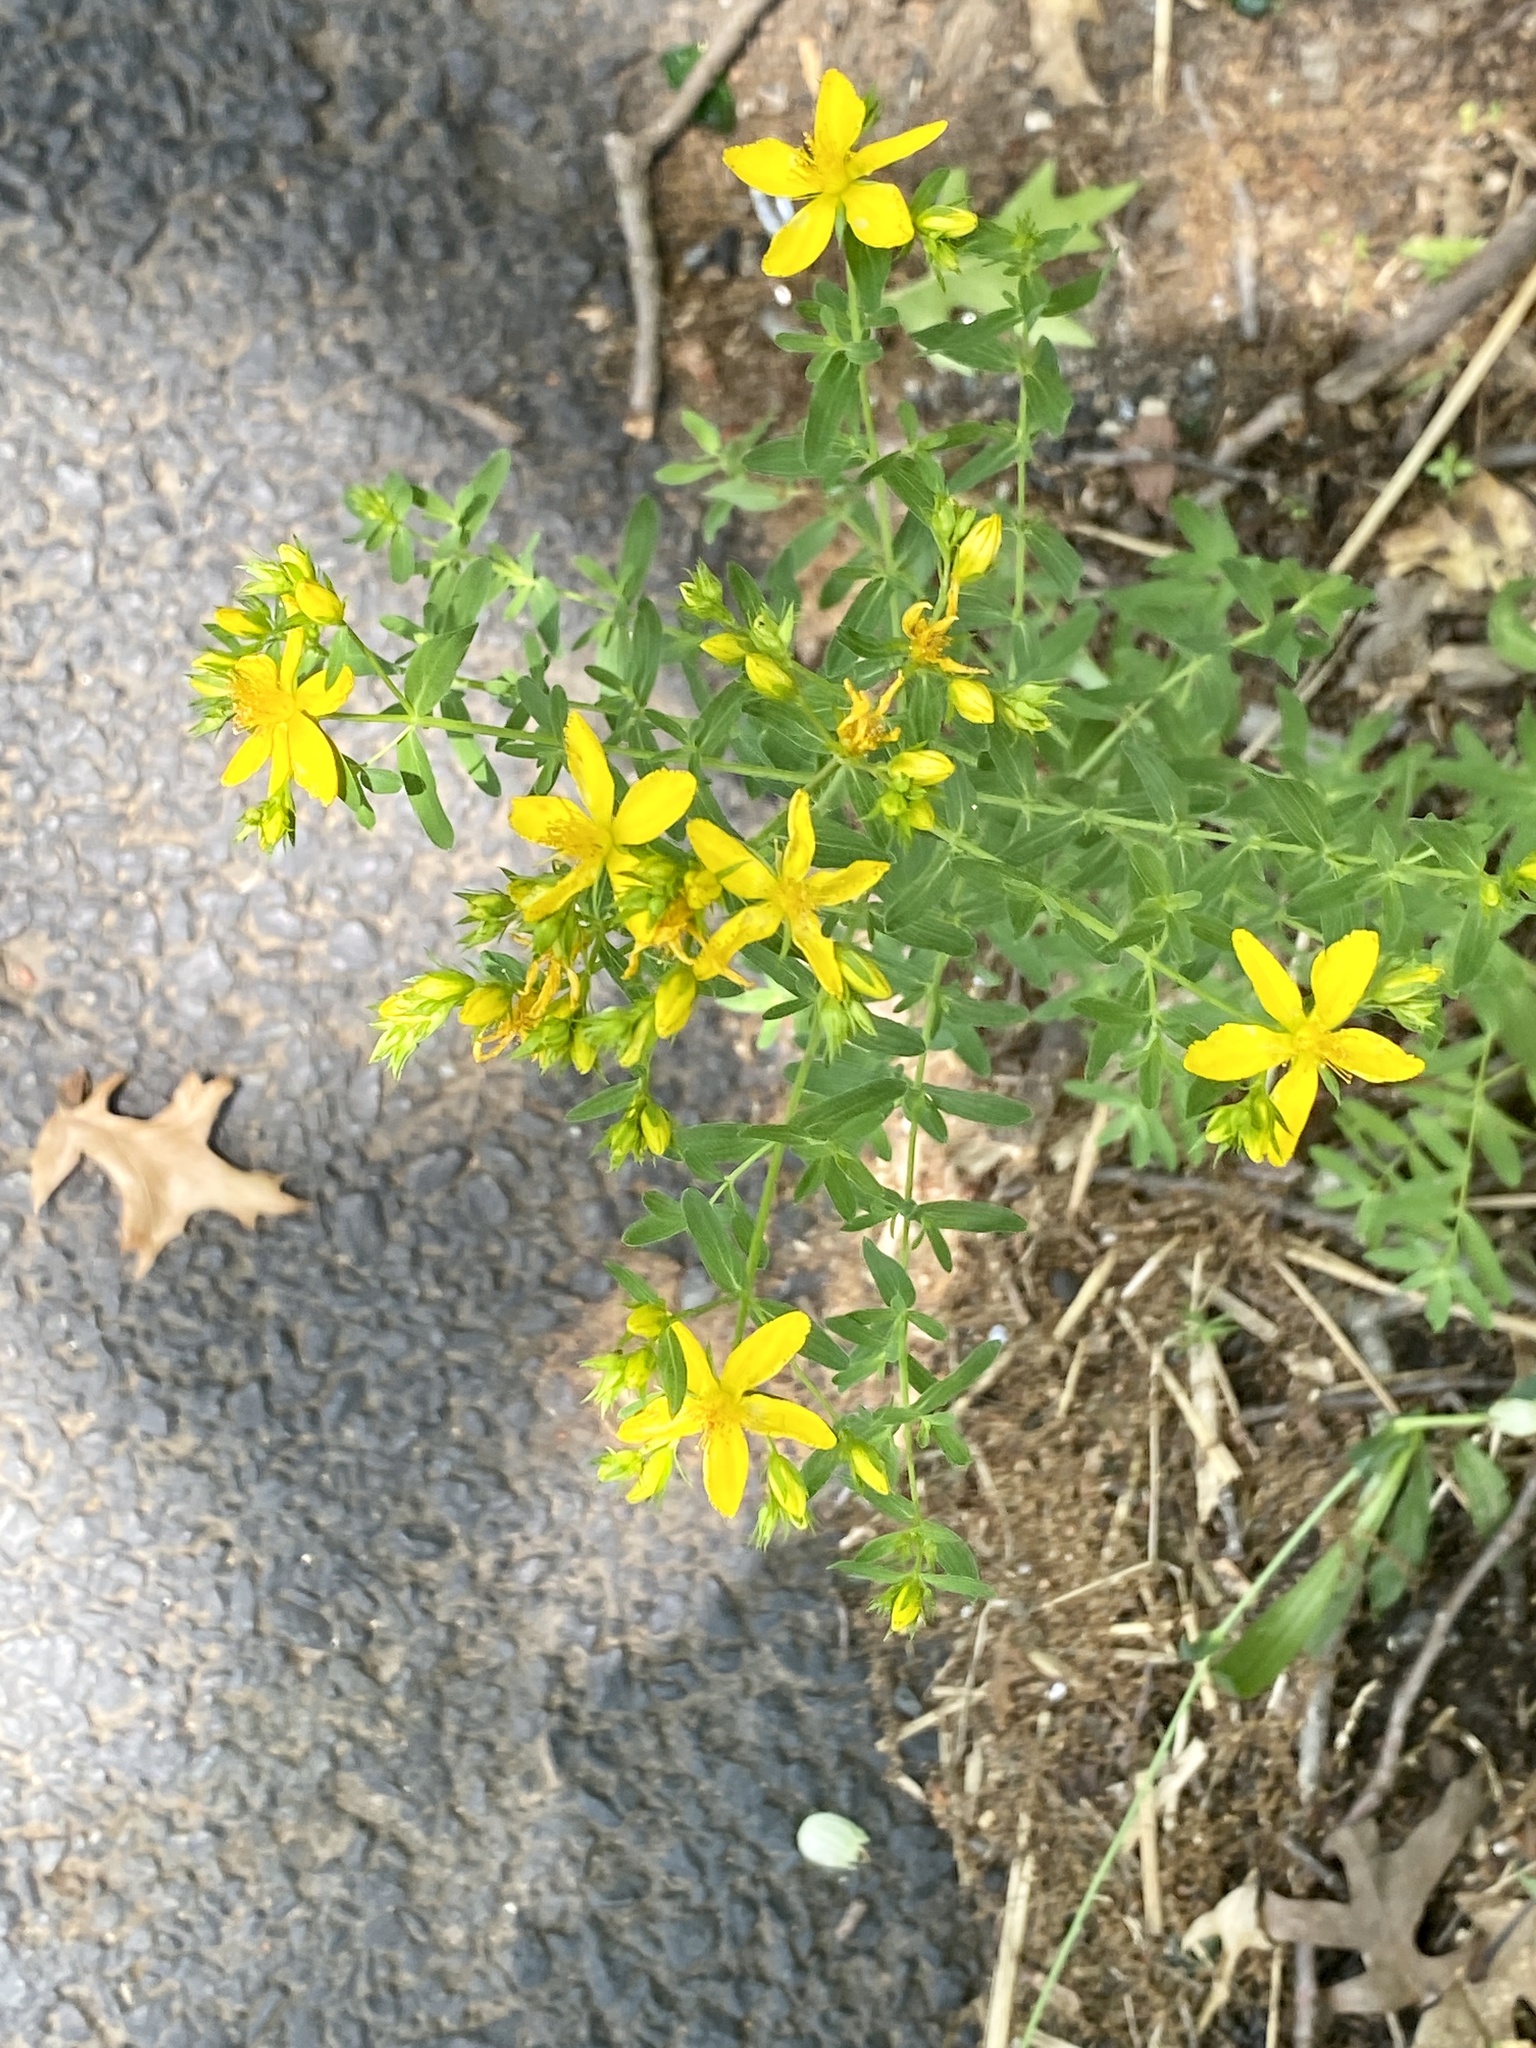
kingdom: Plantae
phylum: Tracheophyta
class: Magnoliopsida
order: Malpighiales
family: Hypericaceae
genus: Hypericum
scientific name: Hypericum perforatum
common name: Common st. johnswort
